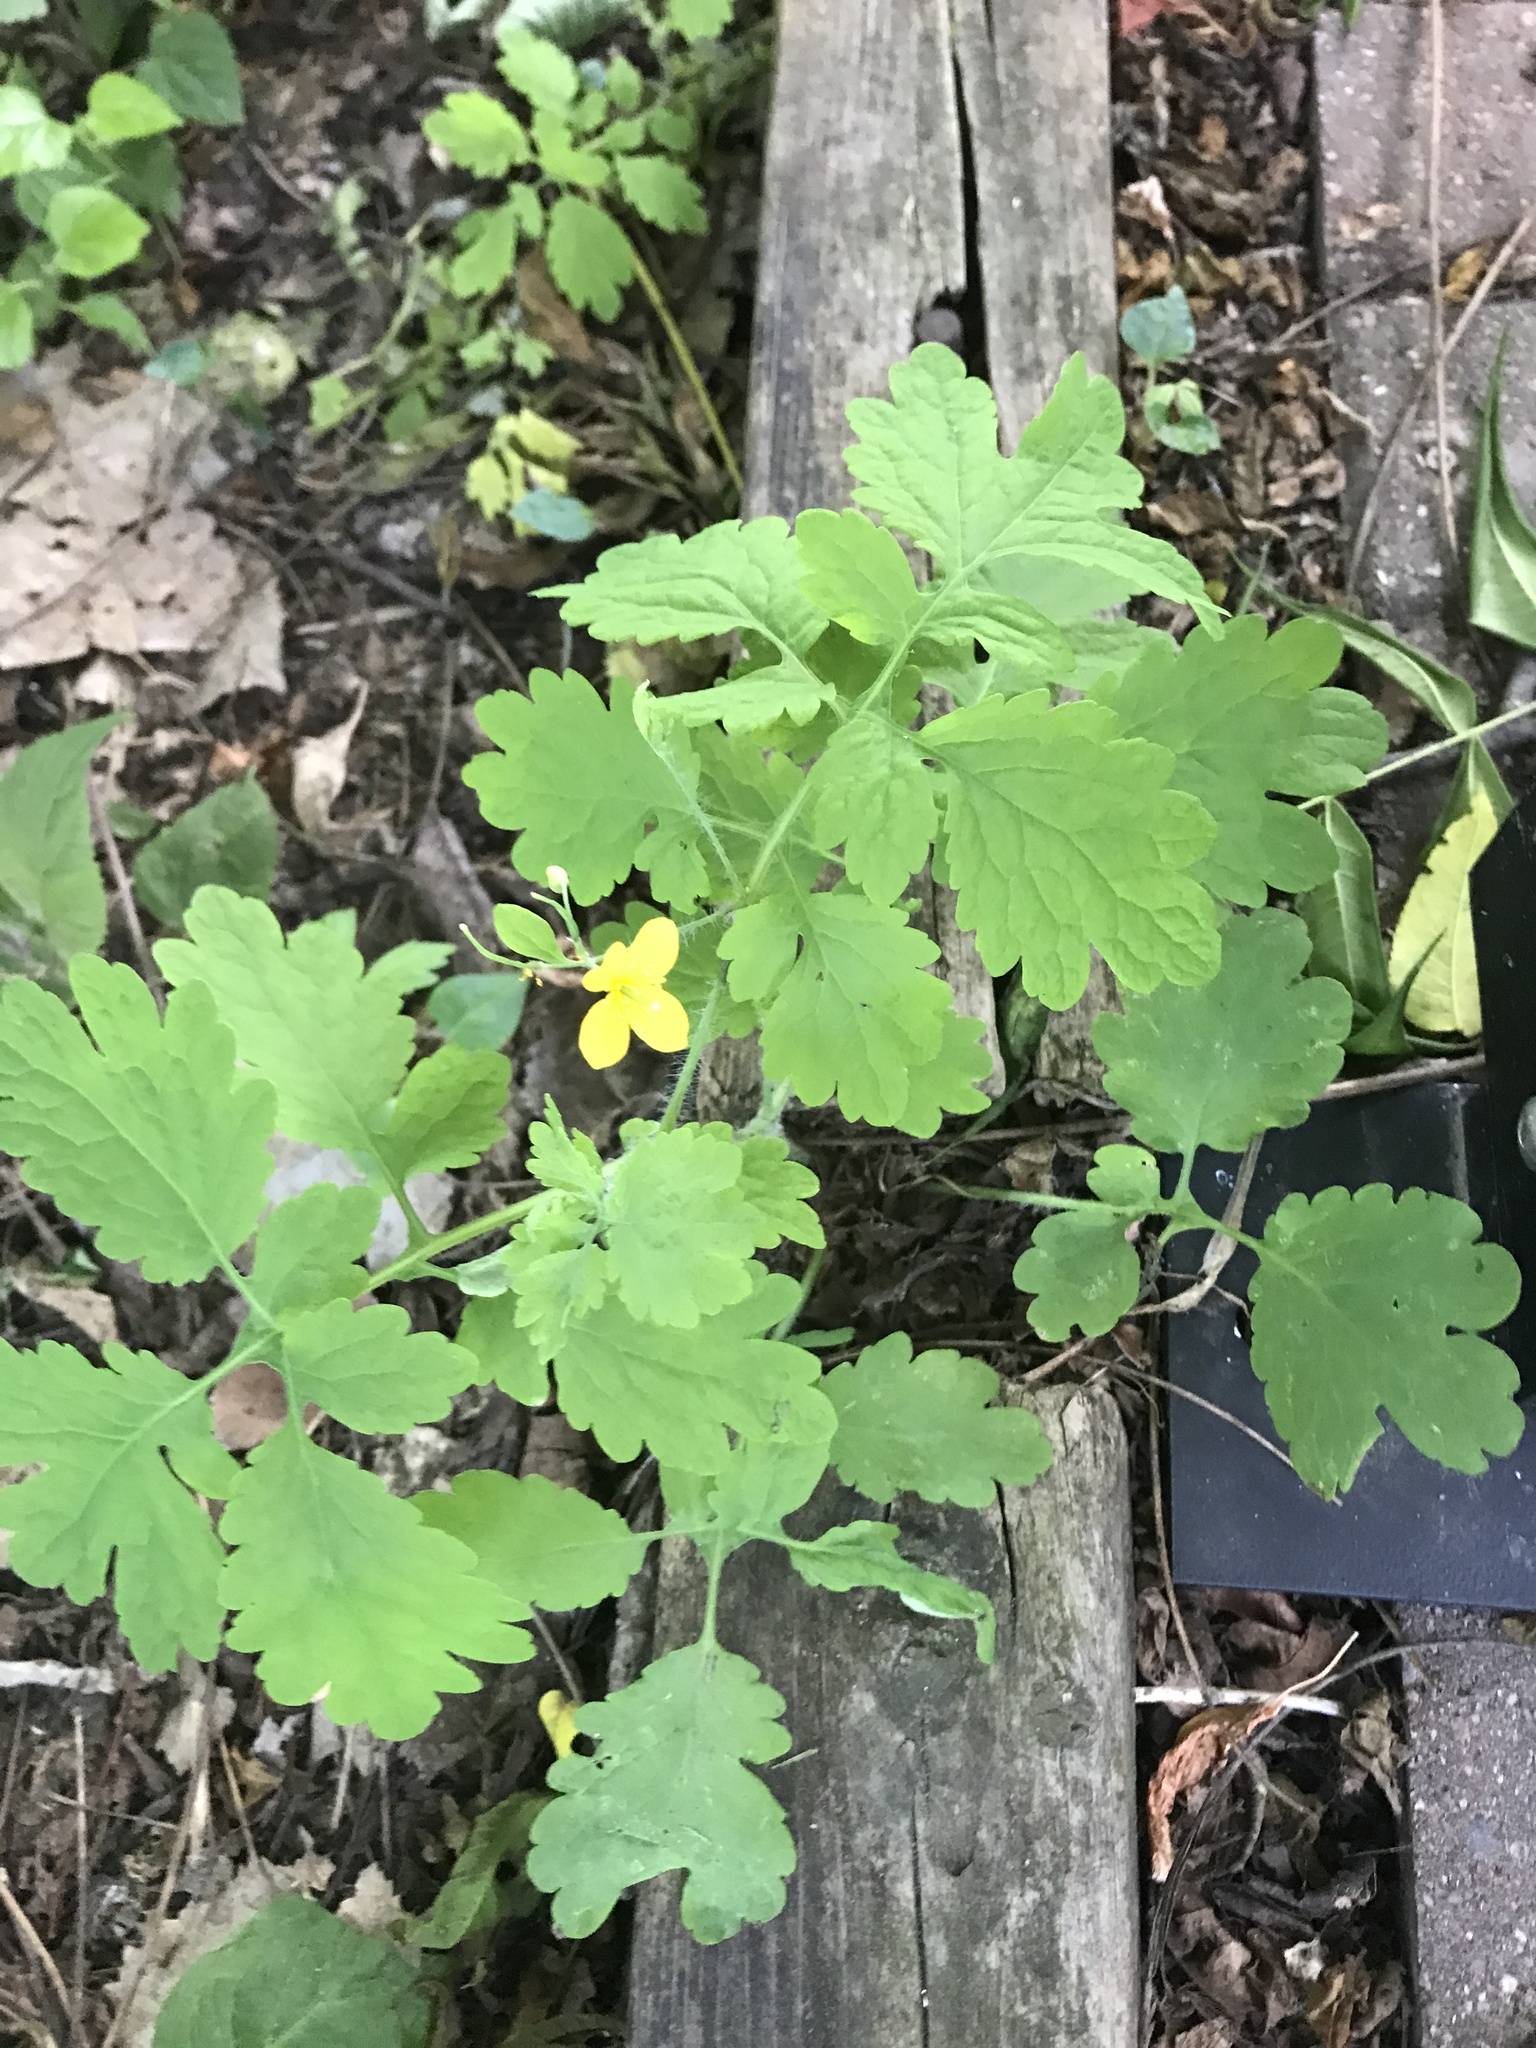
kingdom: Plantae
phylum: Tracheophyta
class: Magnoliopsida
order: Ranunculales
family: Papaveraceae
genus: Chelidonium
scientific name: Chelidonium majus
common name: Greater celandine
